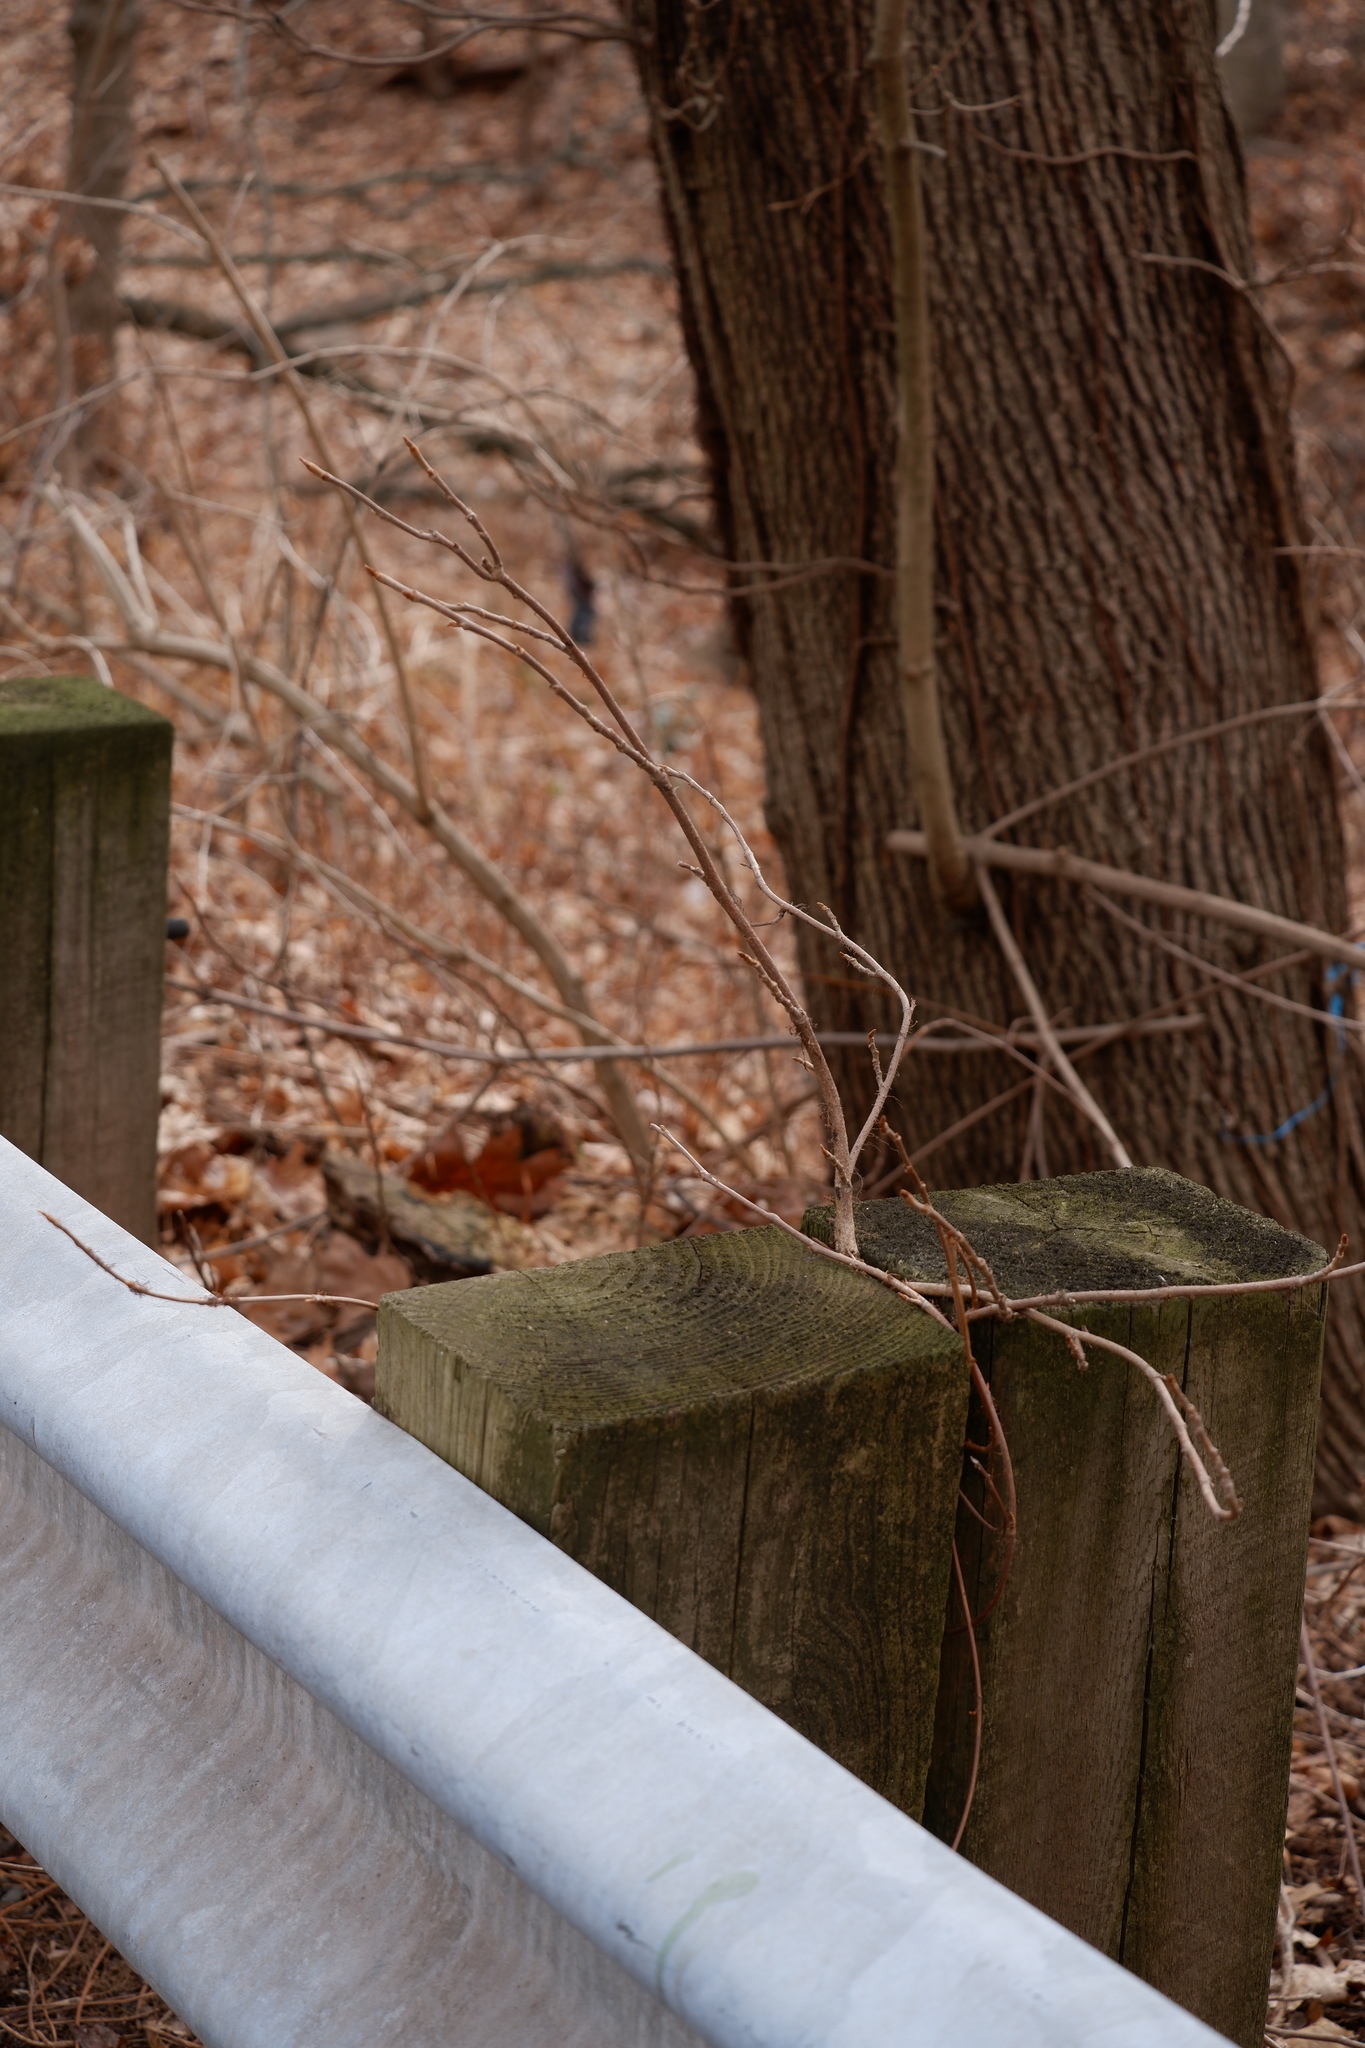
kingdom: Plantae
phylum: Tracheophyta
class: Magnoliopsida
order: Sapindales
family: Anacardiaceae
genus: Toxicodendron
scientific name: Toxicodendron radicans
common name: Poison ivy
